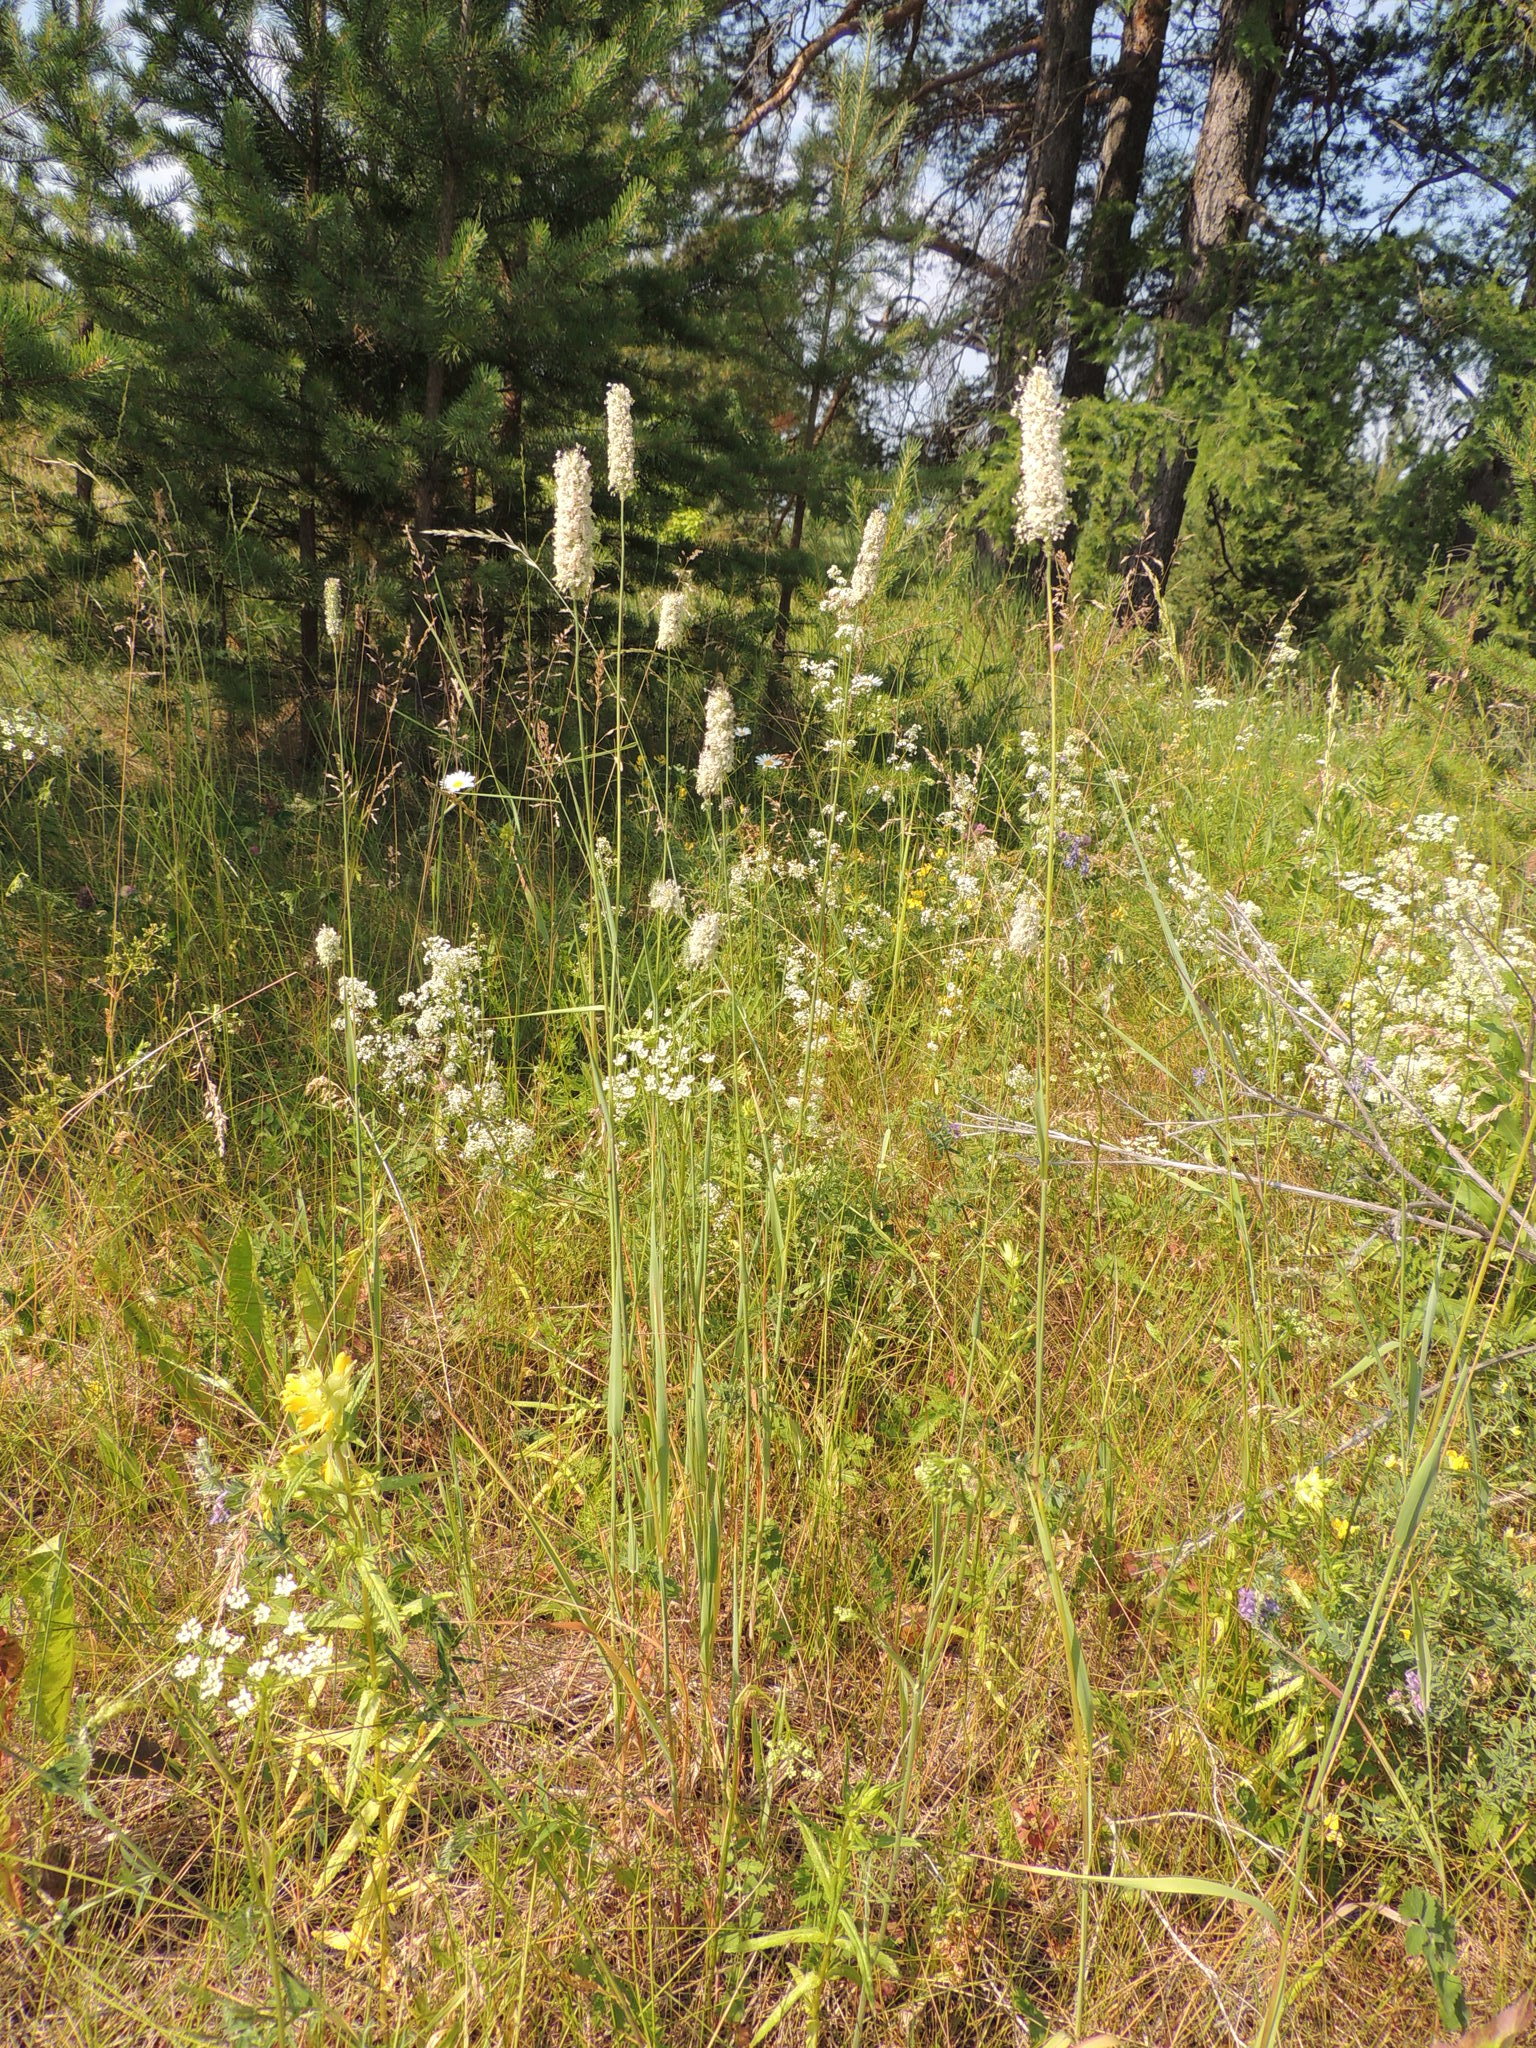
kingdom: Plantae
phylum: Tracheophyta
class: Liliopsida
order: Poales
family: Poaceae
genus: Phleum
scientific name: Phleum pratense
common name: Timothy grass
